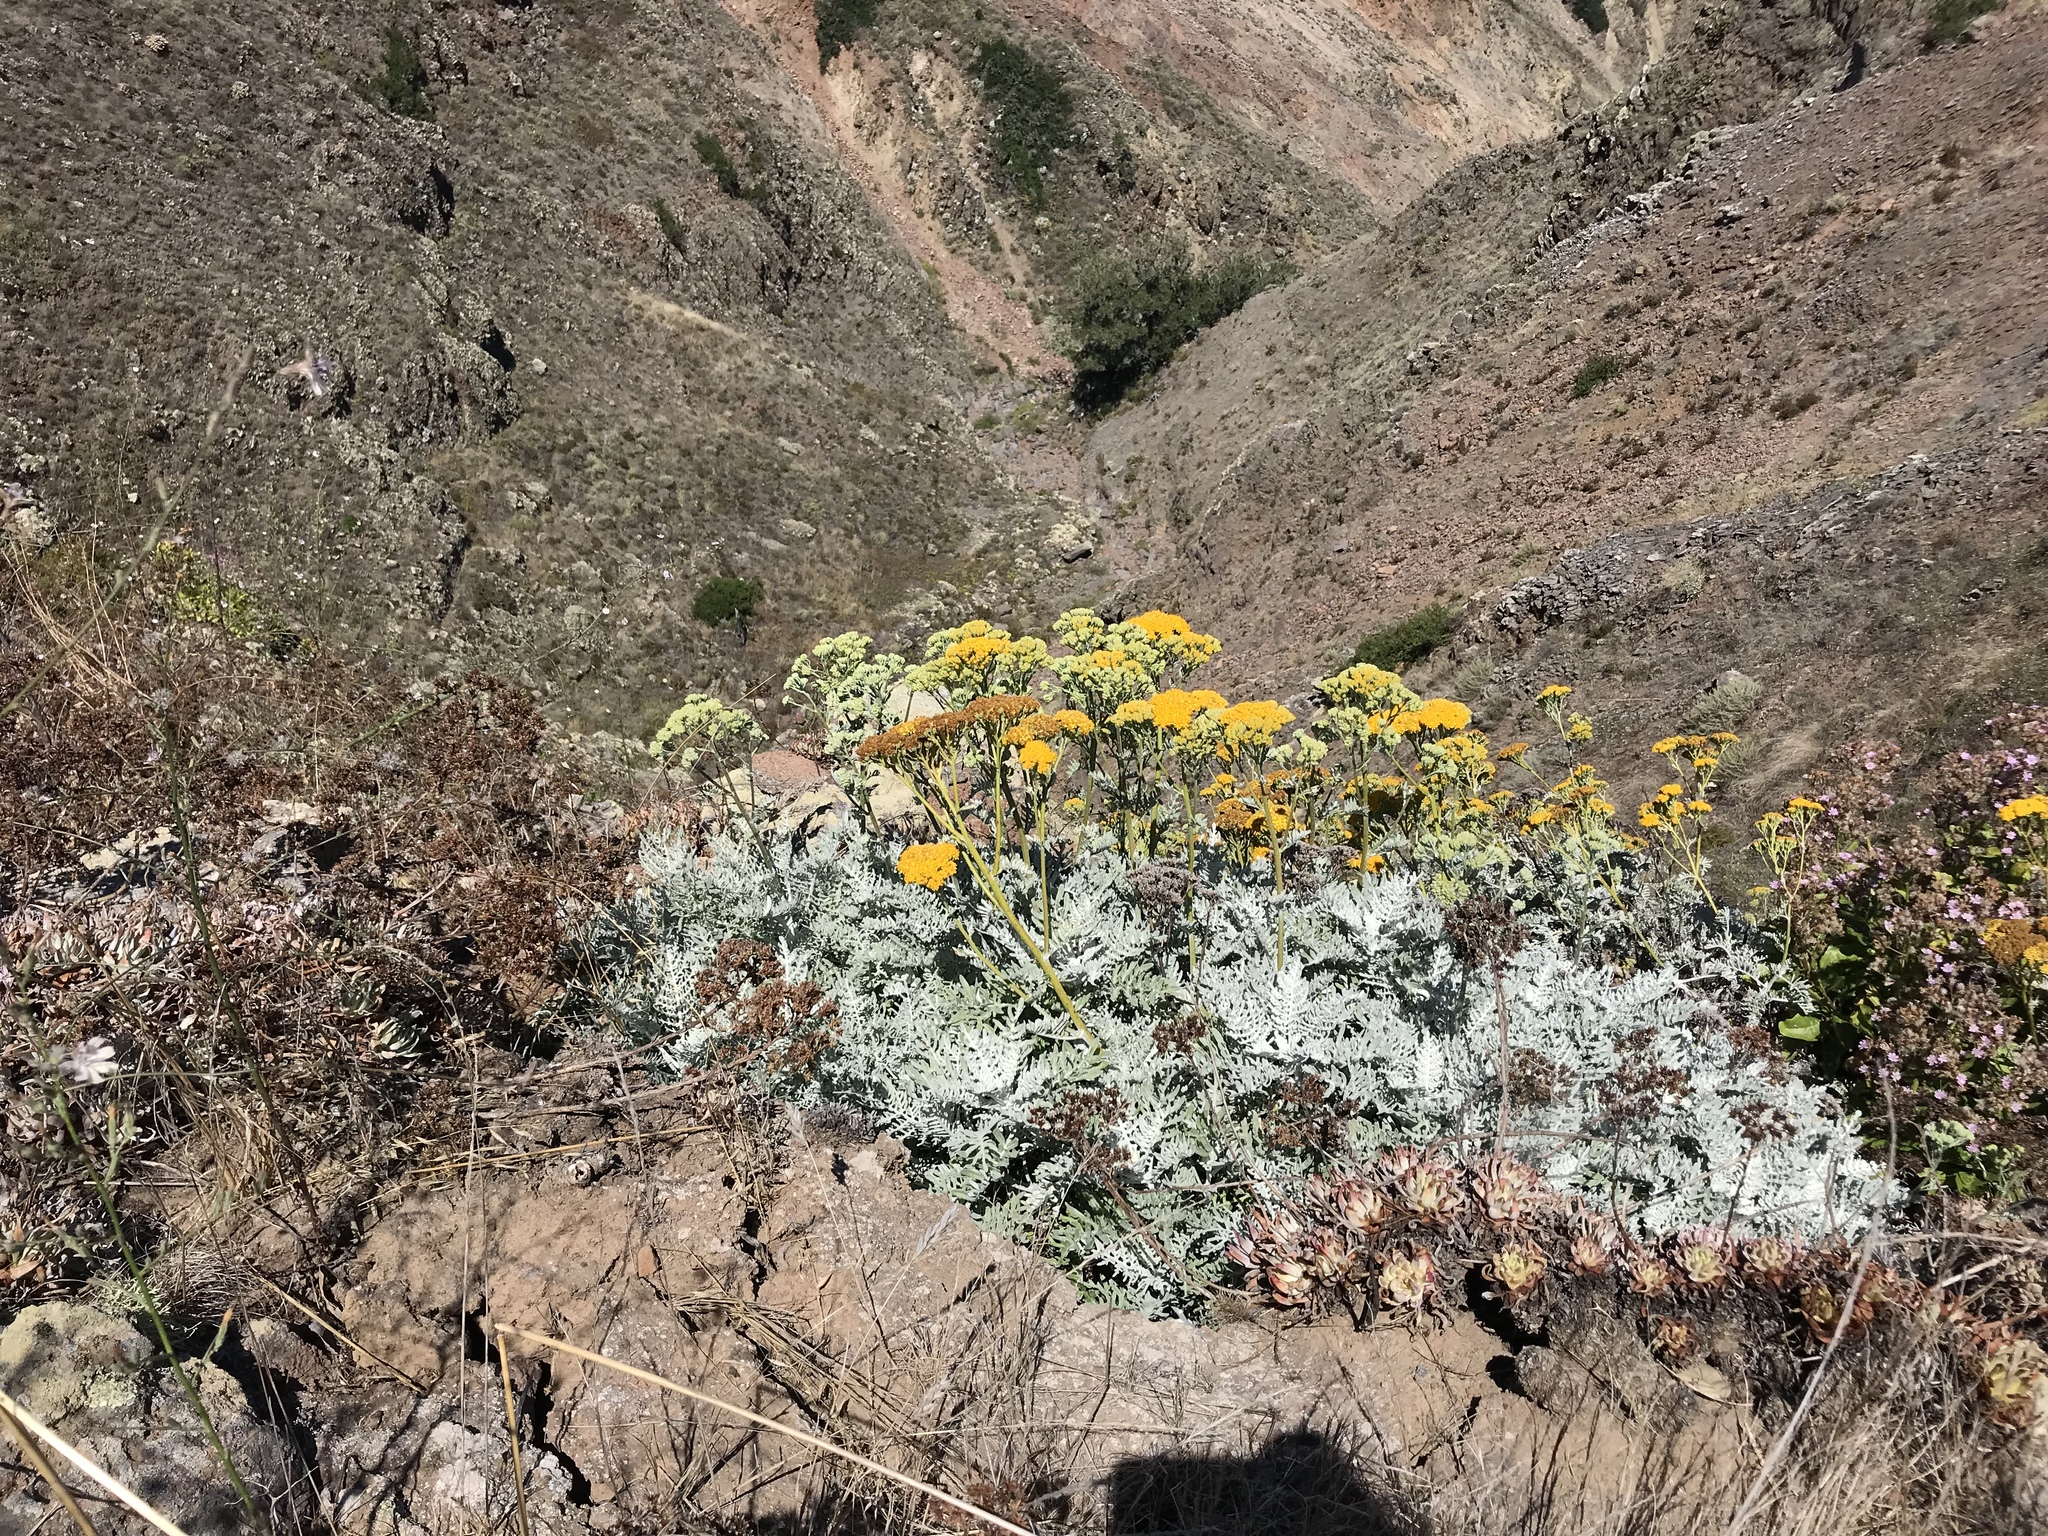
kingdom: Plantae
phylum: Tracheophyta
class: Magnoliopsida
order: Asterales
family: Asteraceae
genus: Constancea
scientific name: Constancea nevinii
